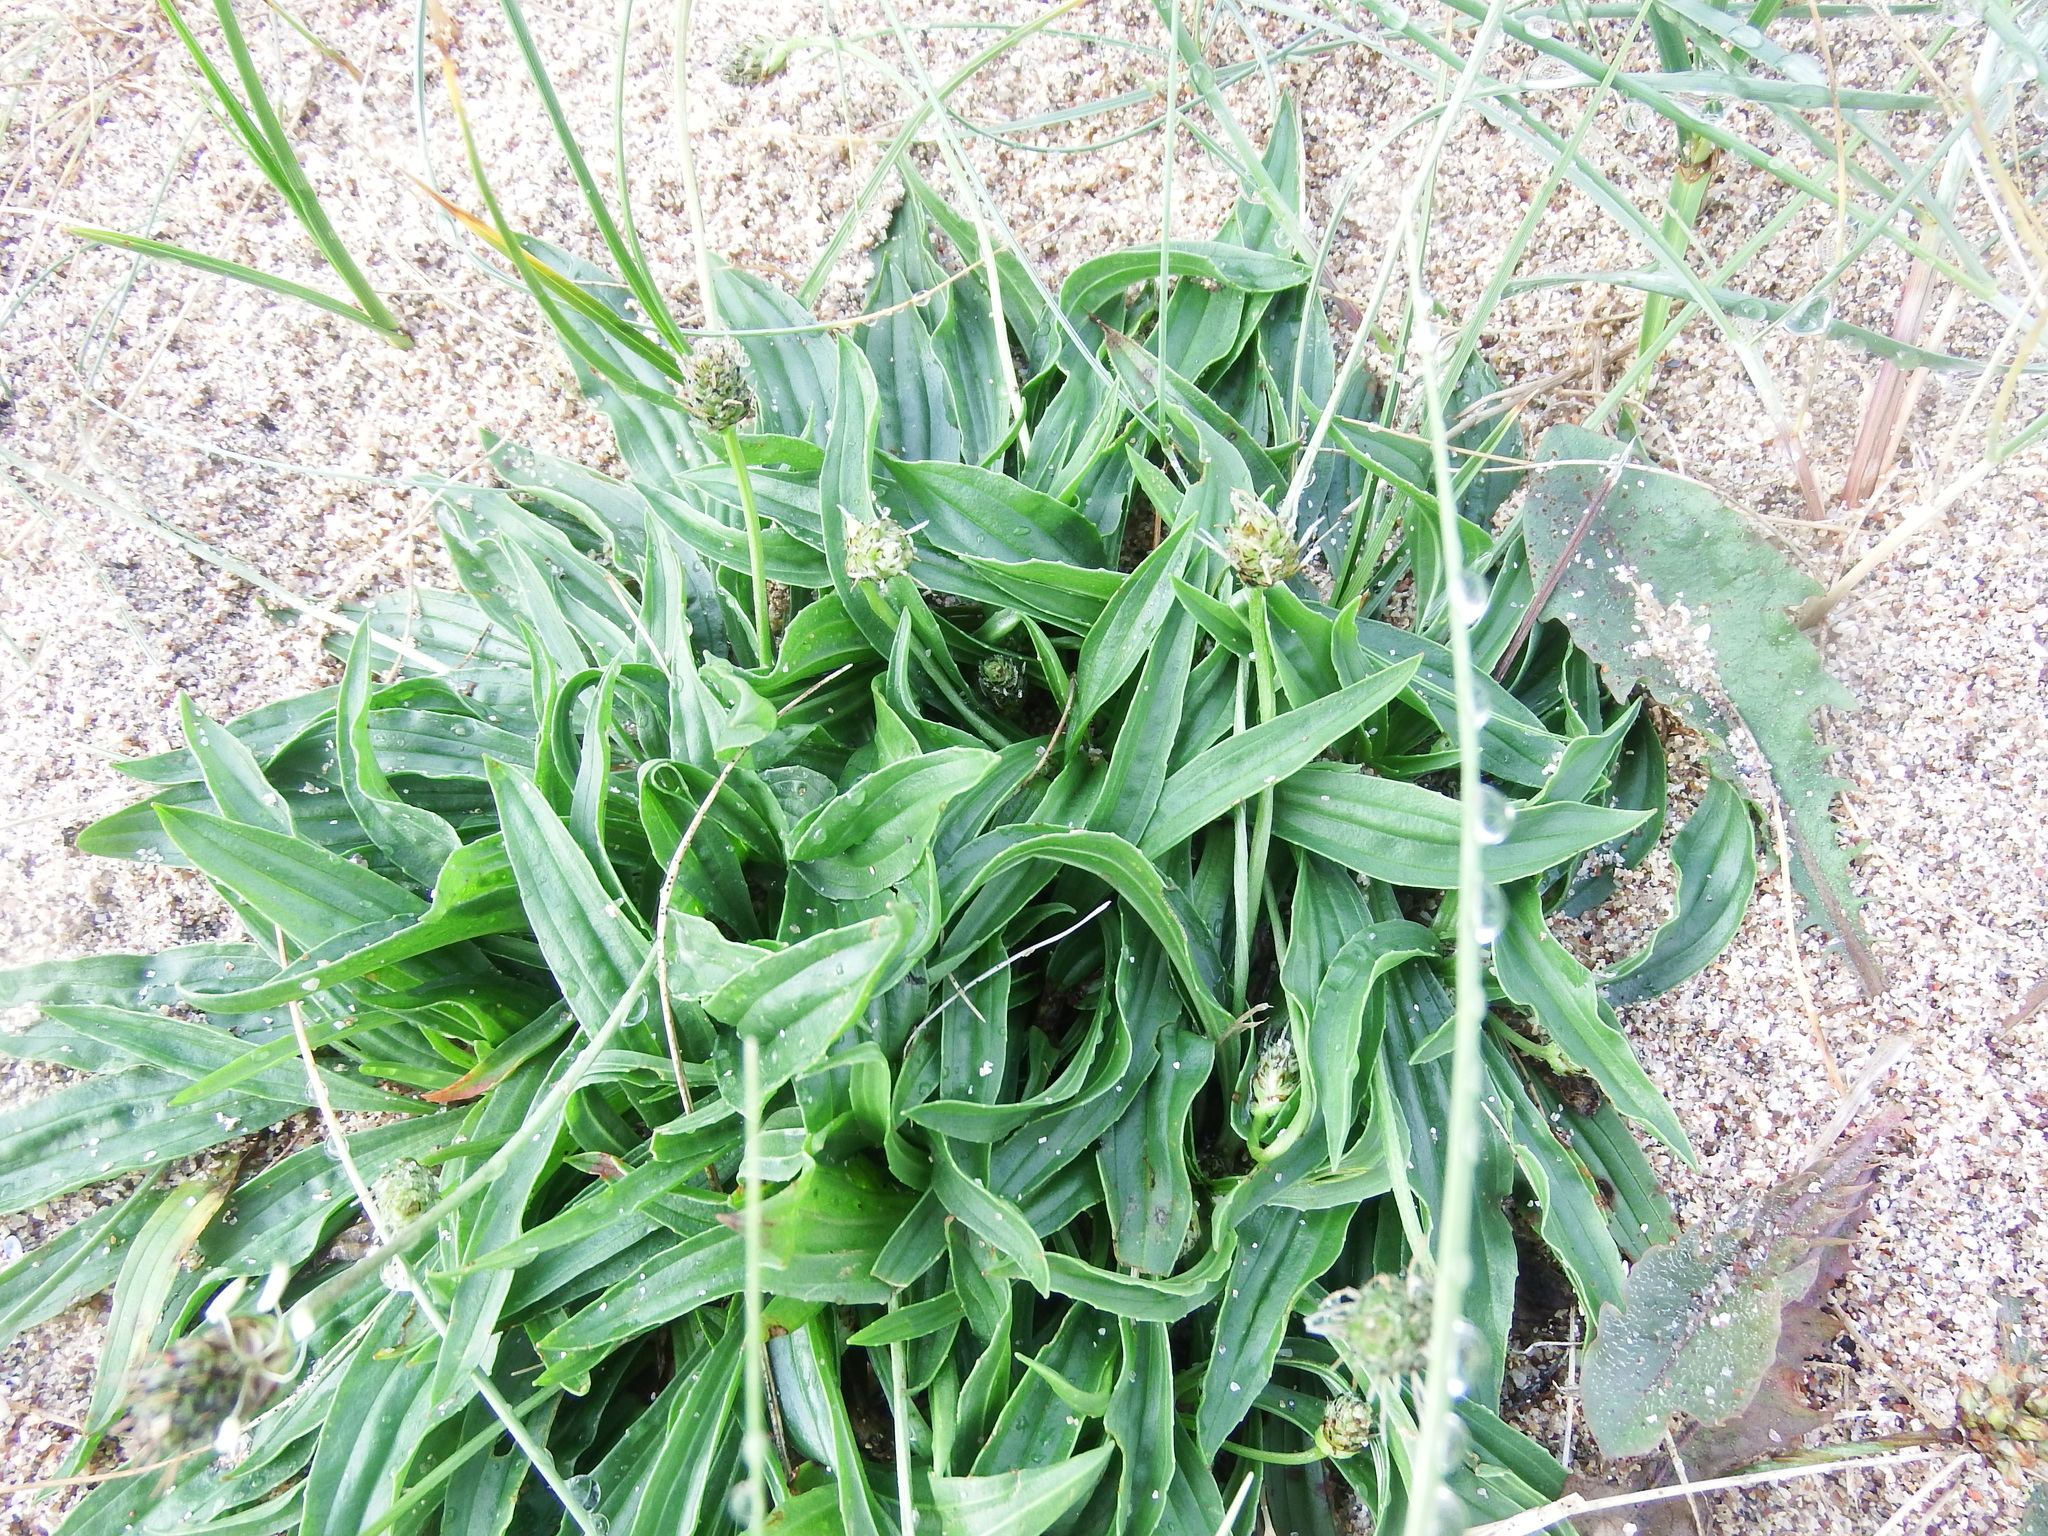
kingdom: Plantae
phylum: Tracheophyta
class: Magnoliopsida
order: Lamiales
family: Plantaginaceae
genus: Plantago
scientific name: Plantago lanceolata
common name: Ribwort plantain
